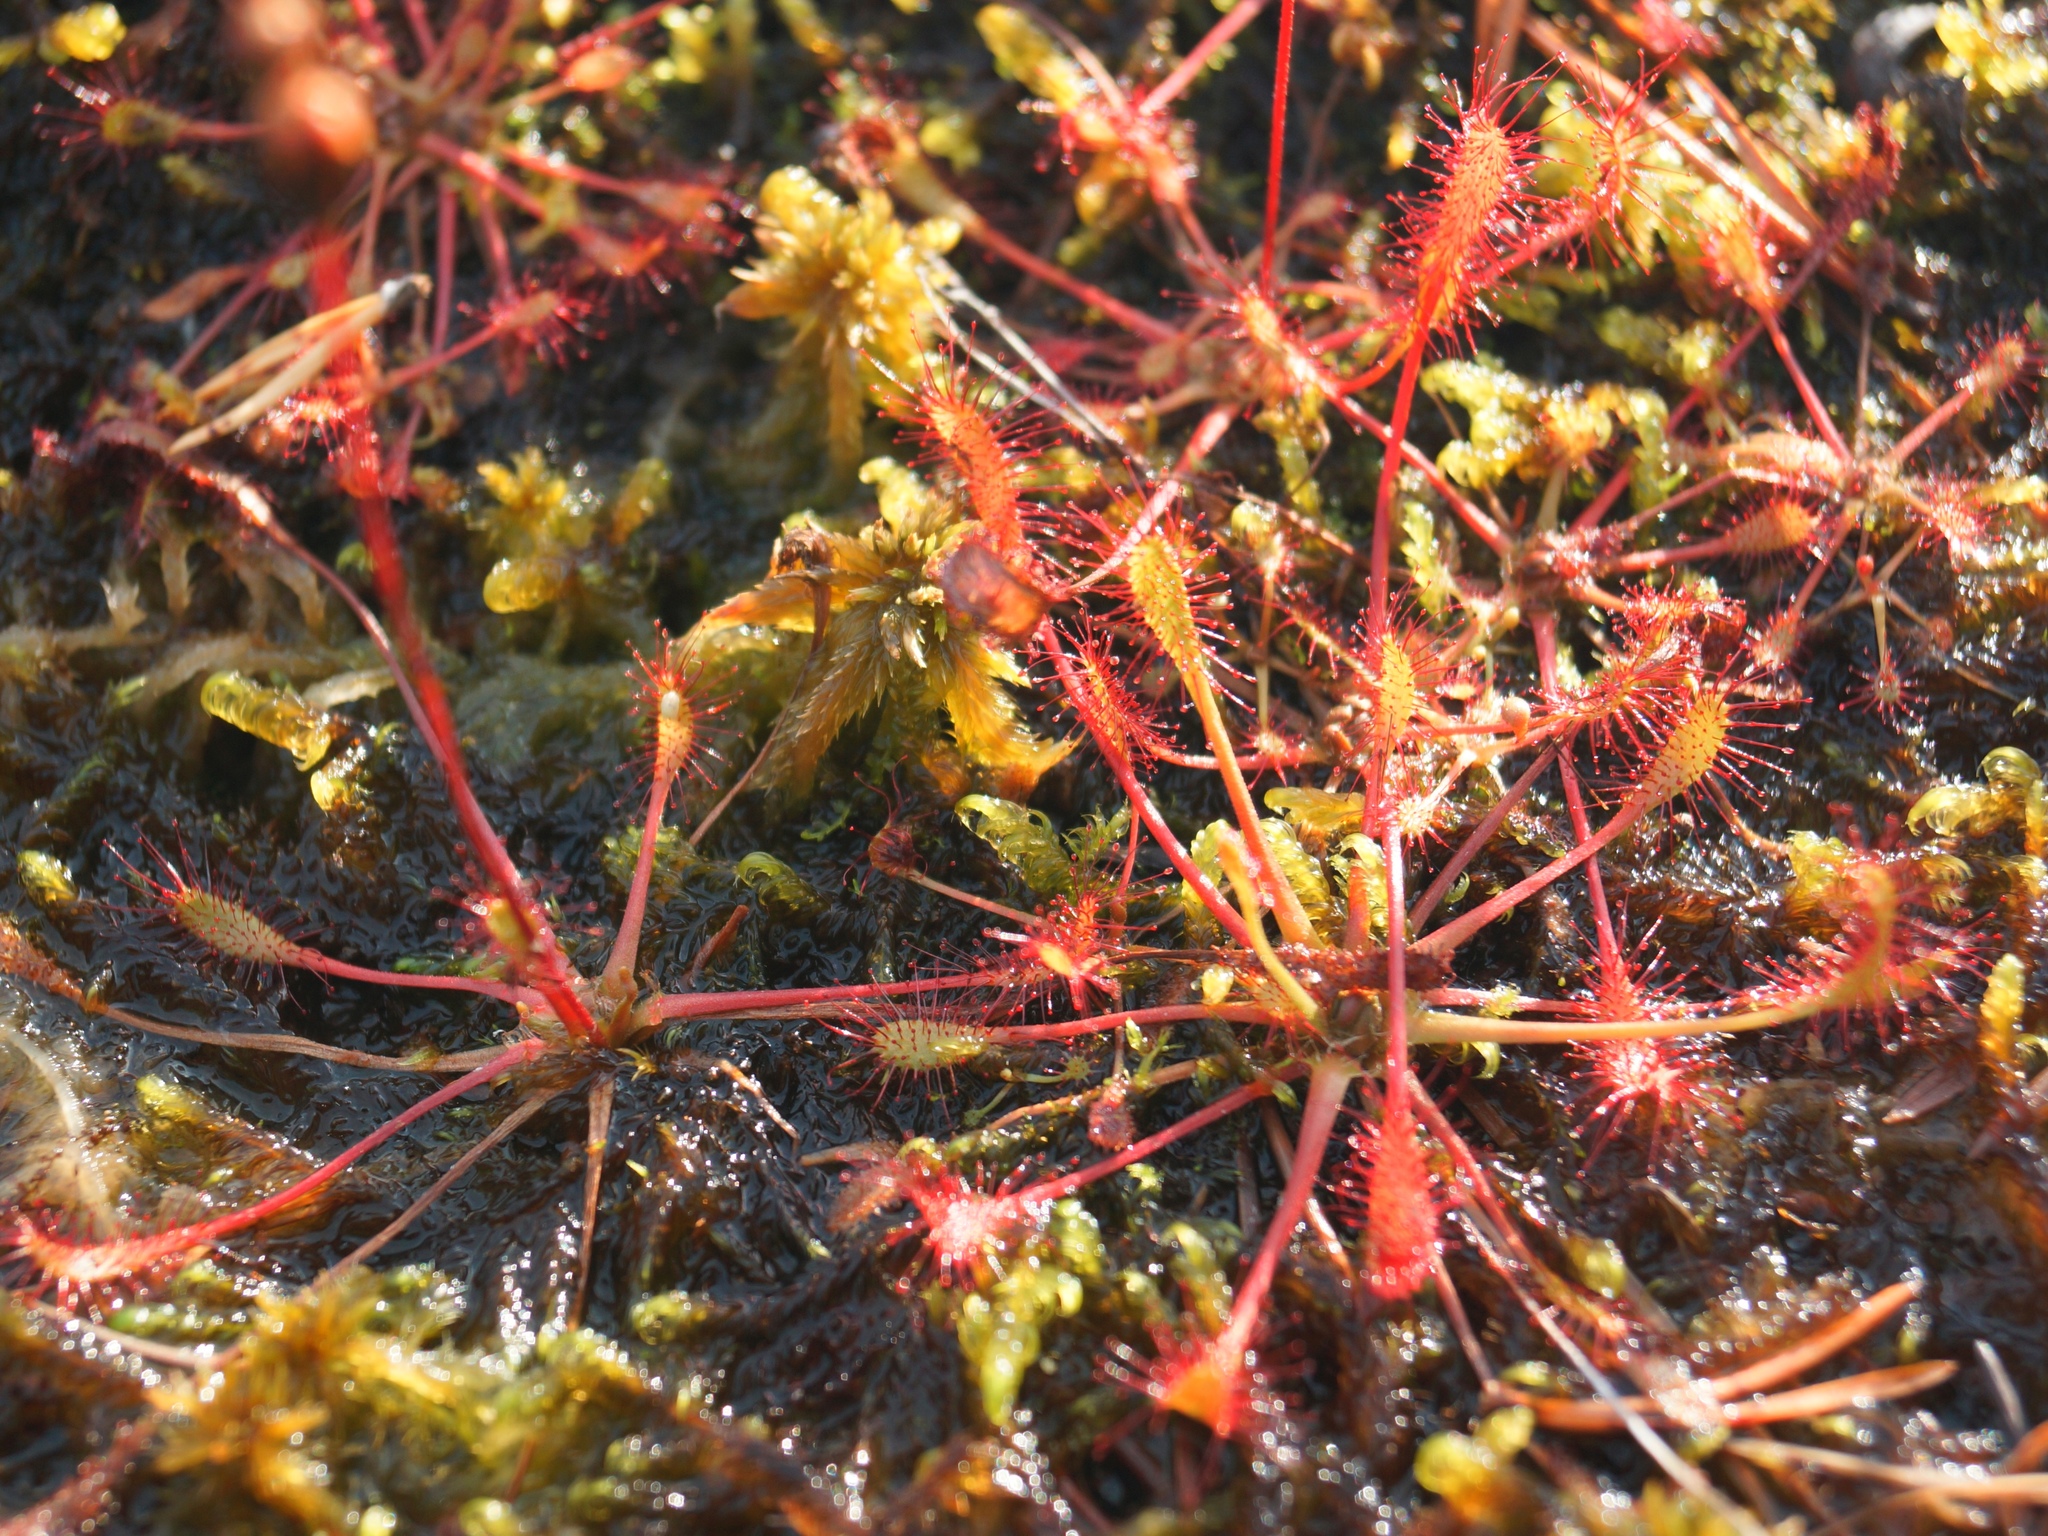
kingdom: Plantae
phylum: Tracheophyta
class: Magnoliopsida
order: Caryophyllales
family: Droseraceae
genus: Drosera
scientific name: Drosera anglica
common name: Great sundew
